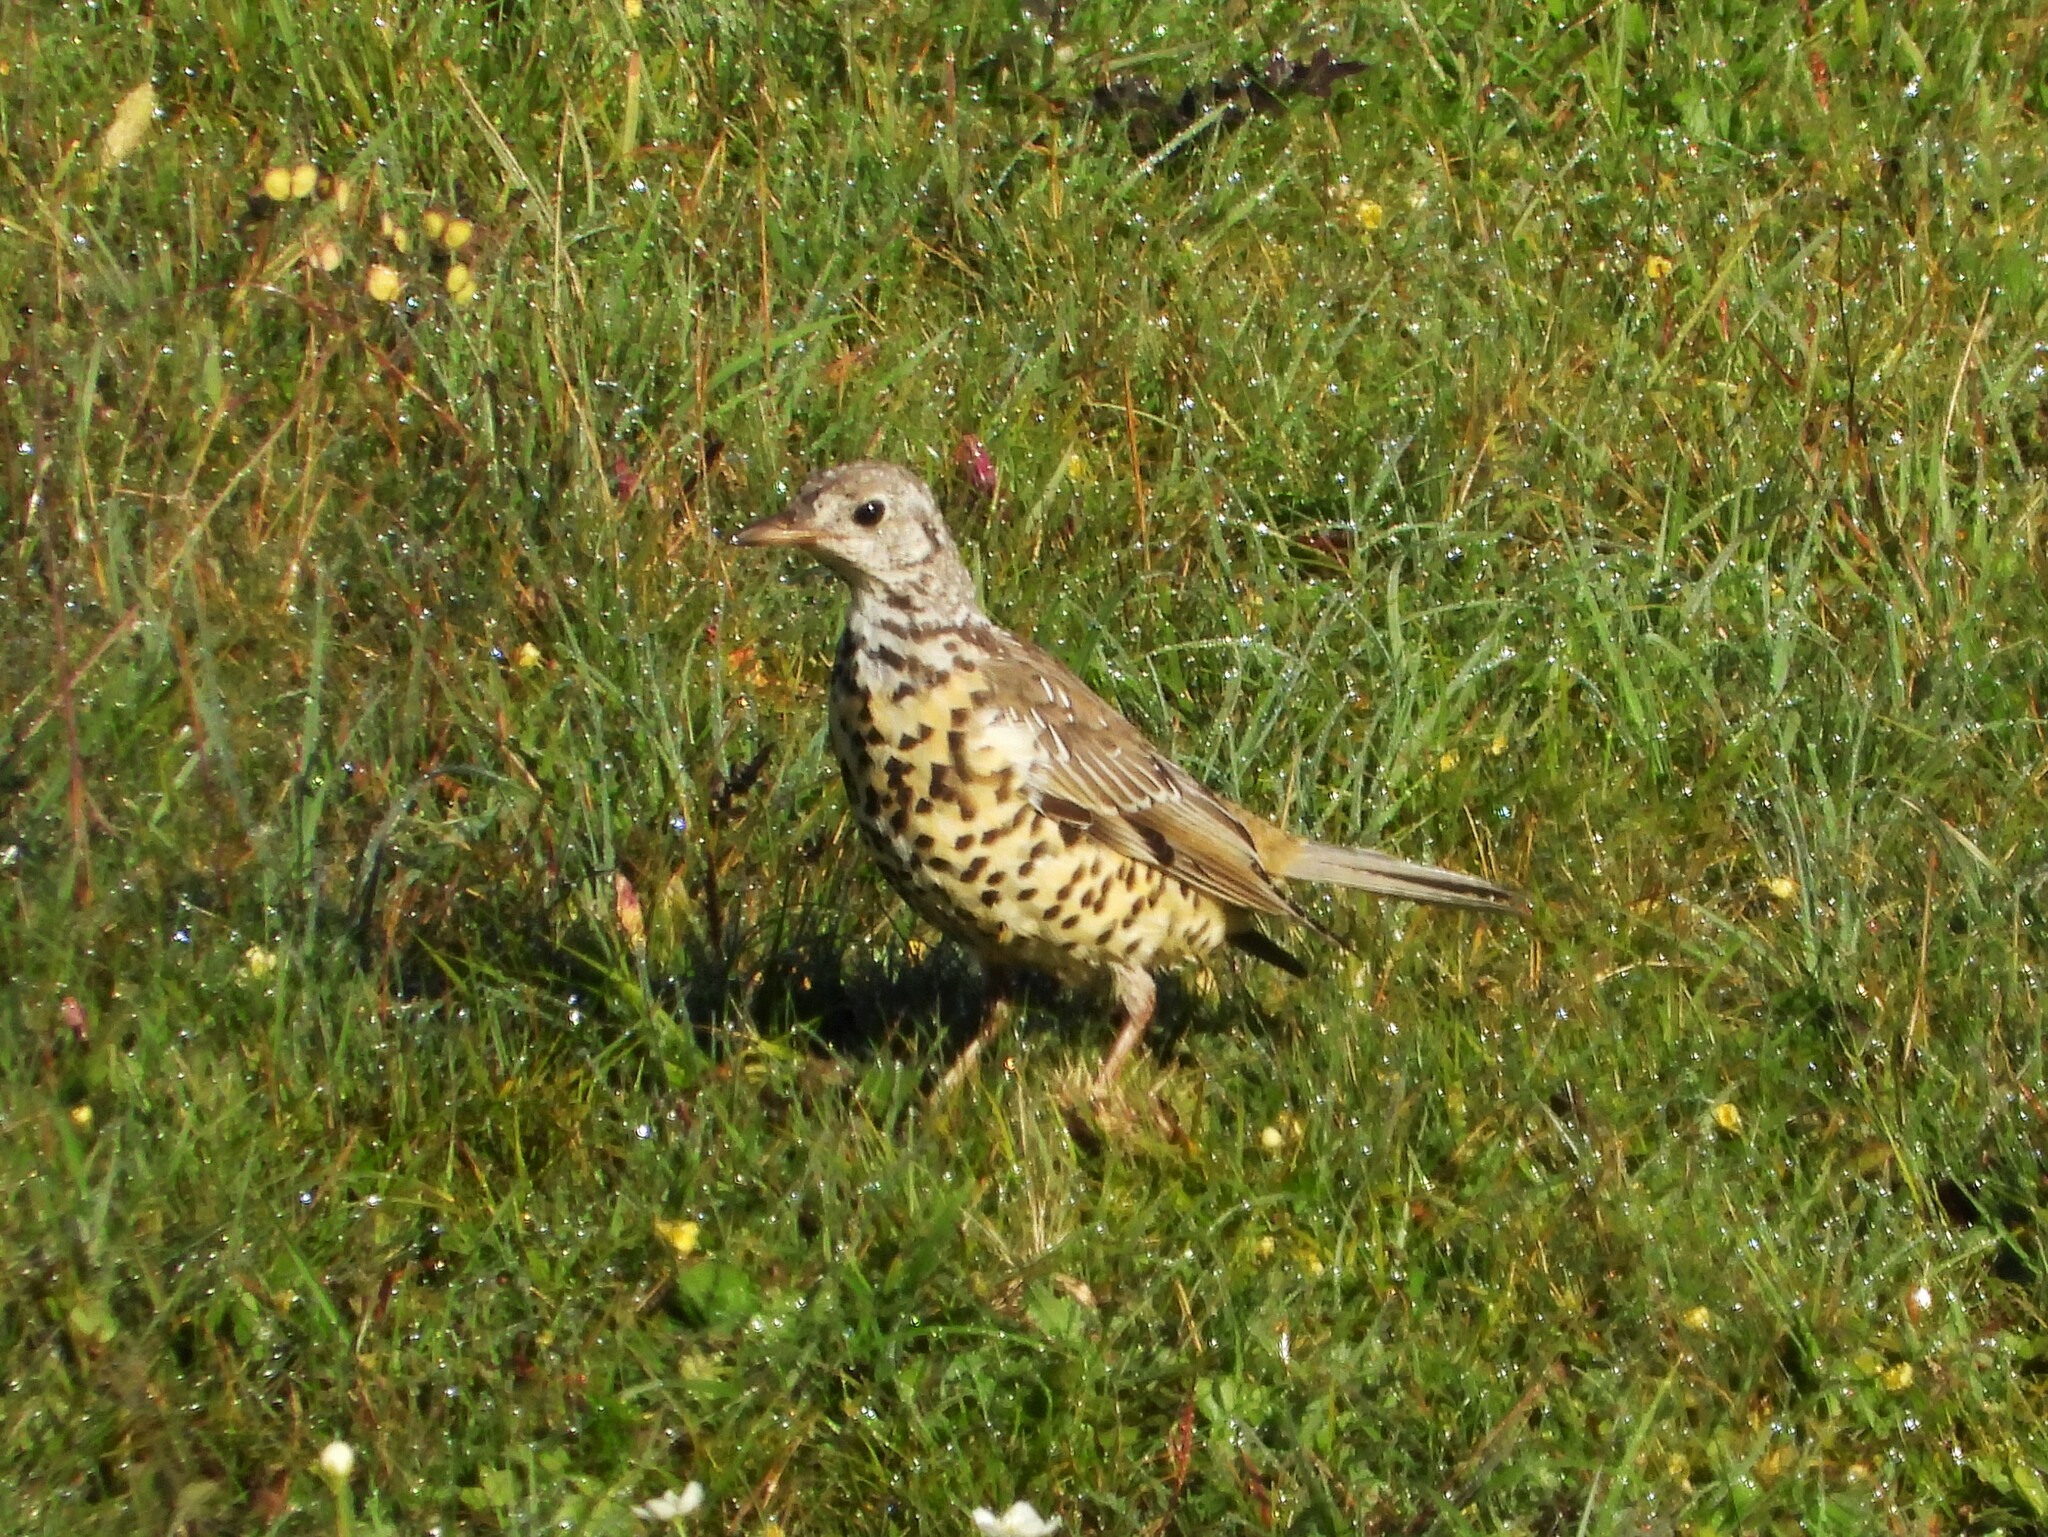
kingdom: Animalia
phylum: Chordata
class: Aves
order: Passeriformes
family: Turdidae
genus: Turdus
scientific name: Turdus viscivorus
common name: Mistle thrush
